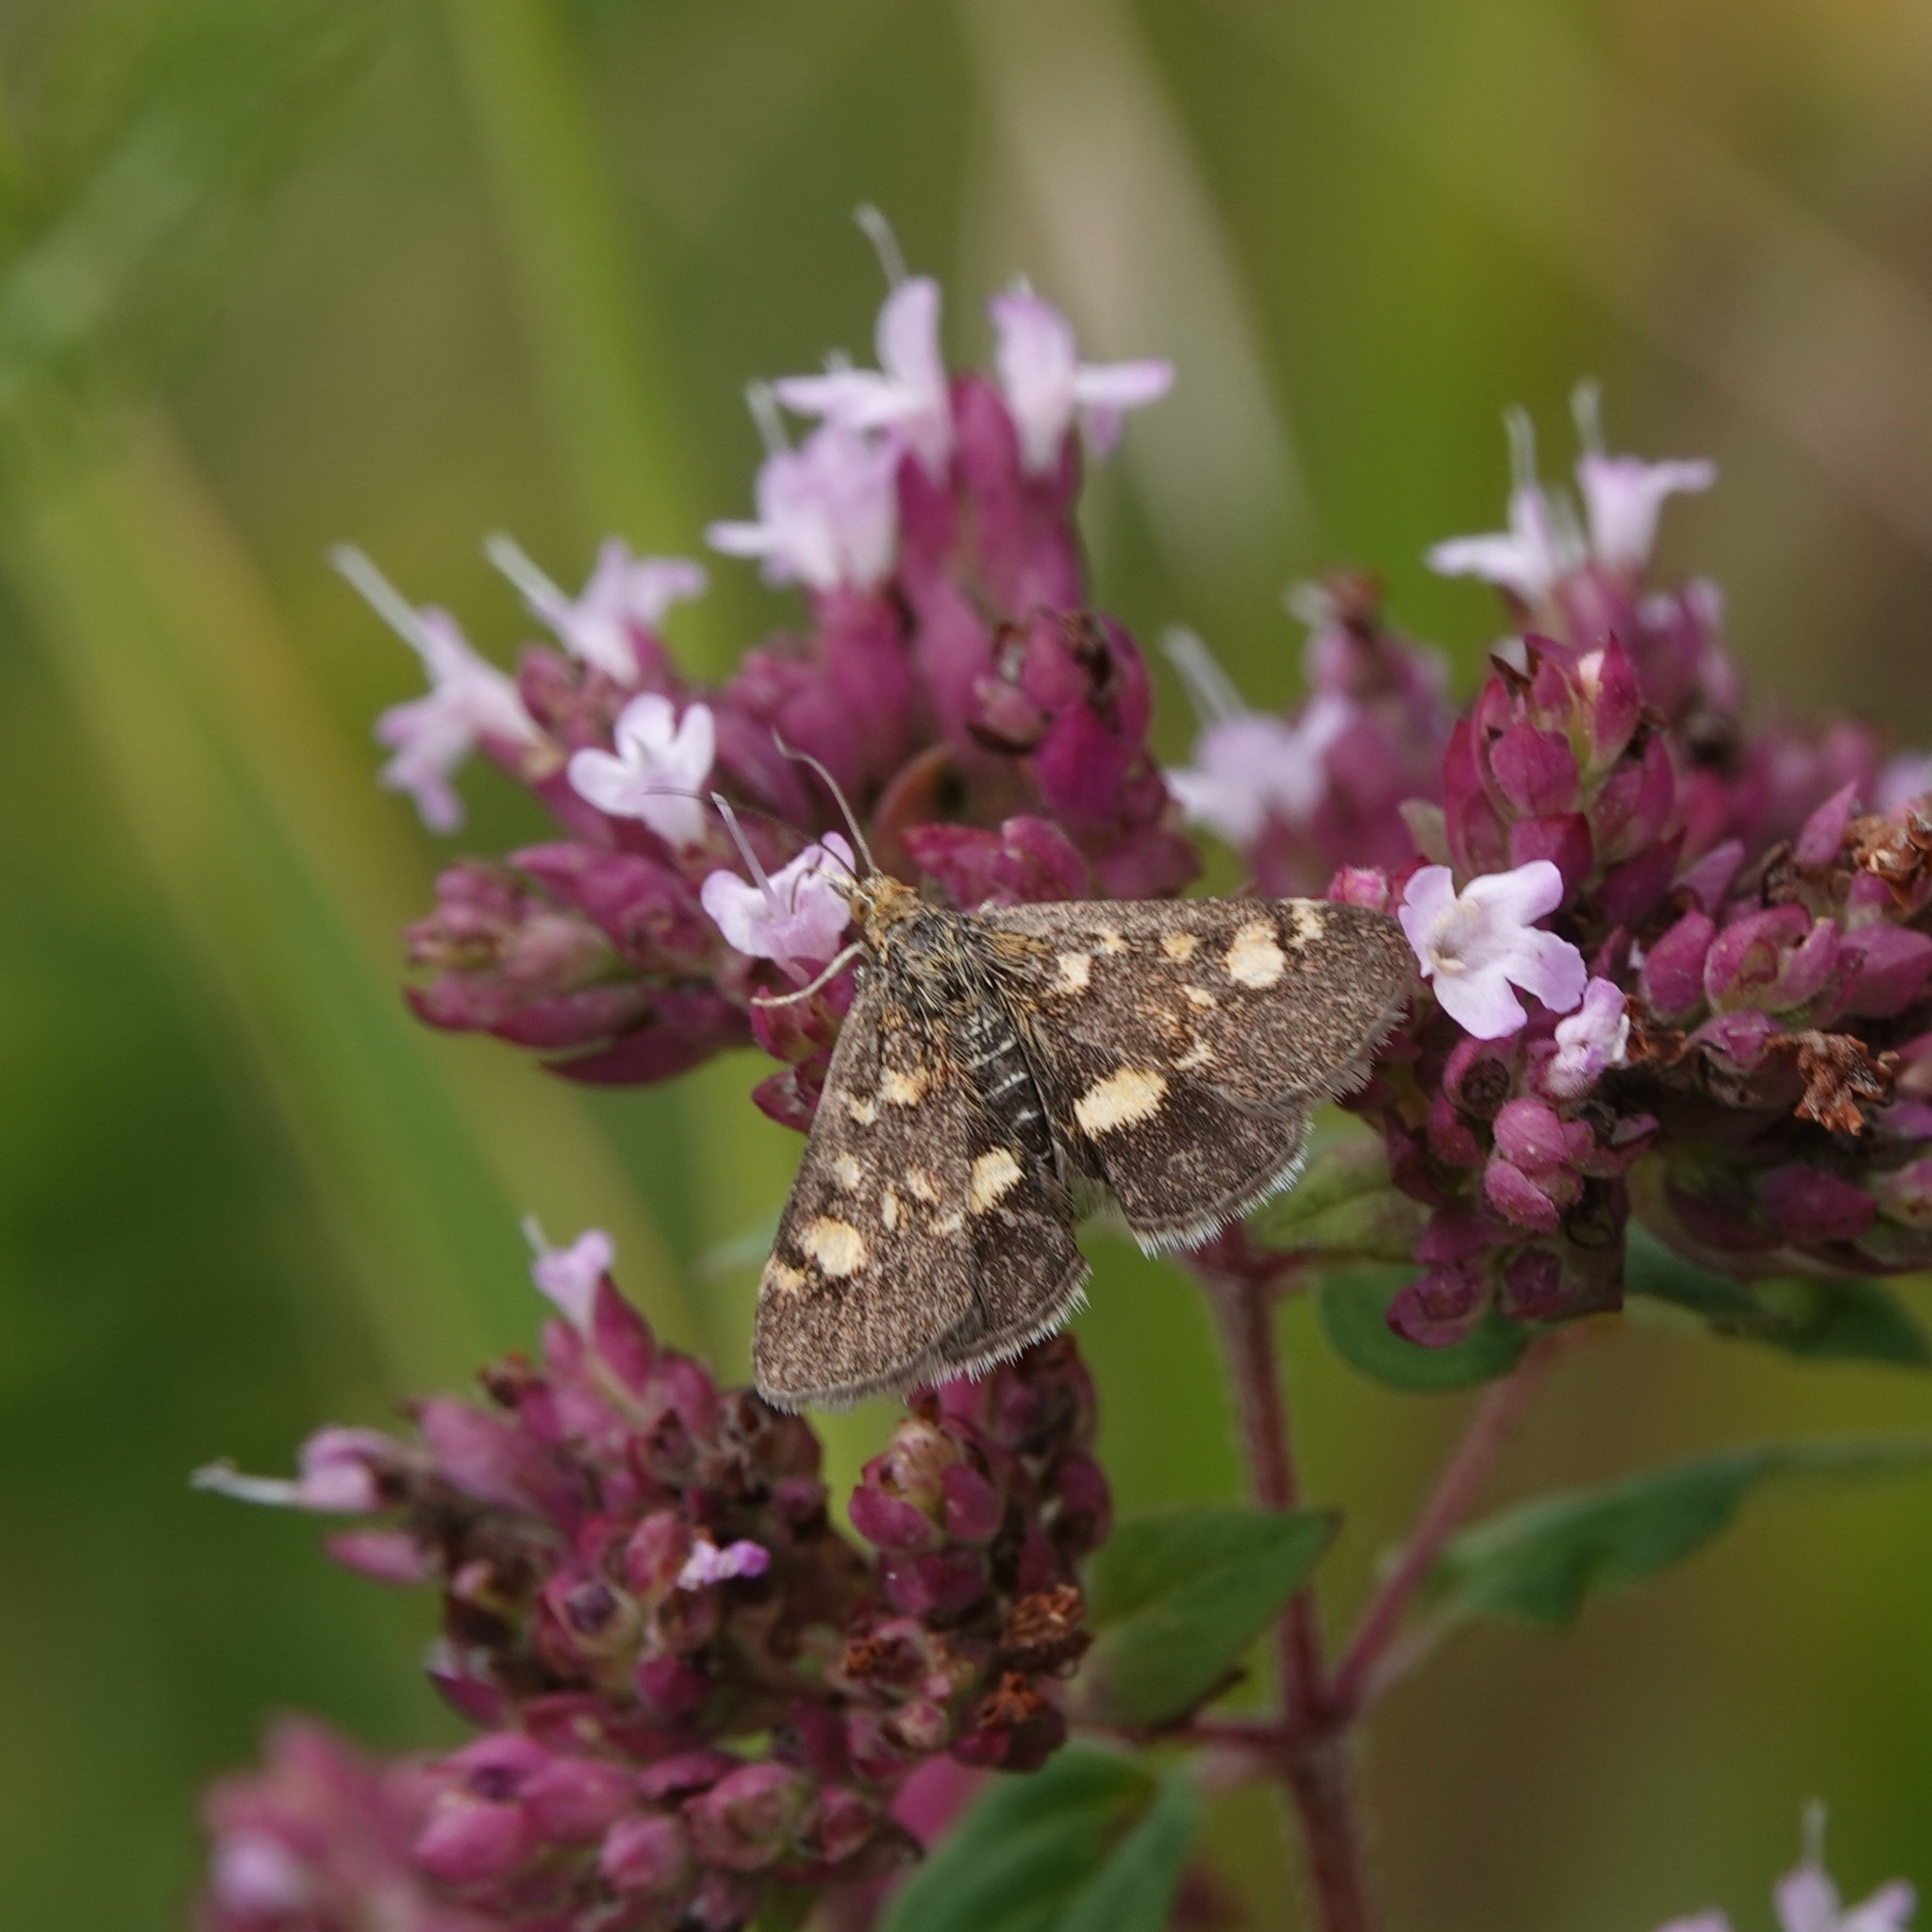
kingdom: Animalia
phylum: Arthropoda
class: Insecta
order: Lepidoptera
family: Crambidae
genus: Pyrausta
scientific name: Pyrausta aurata
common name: Small purple & gold
